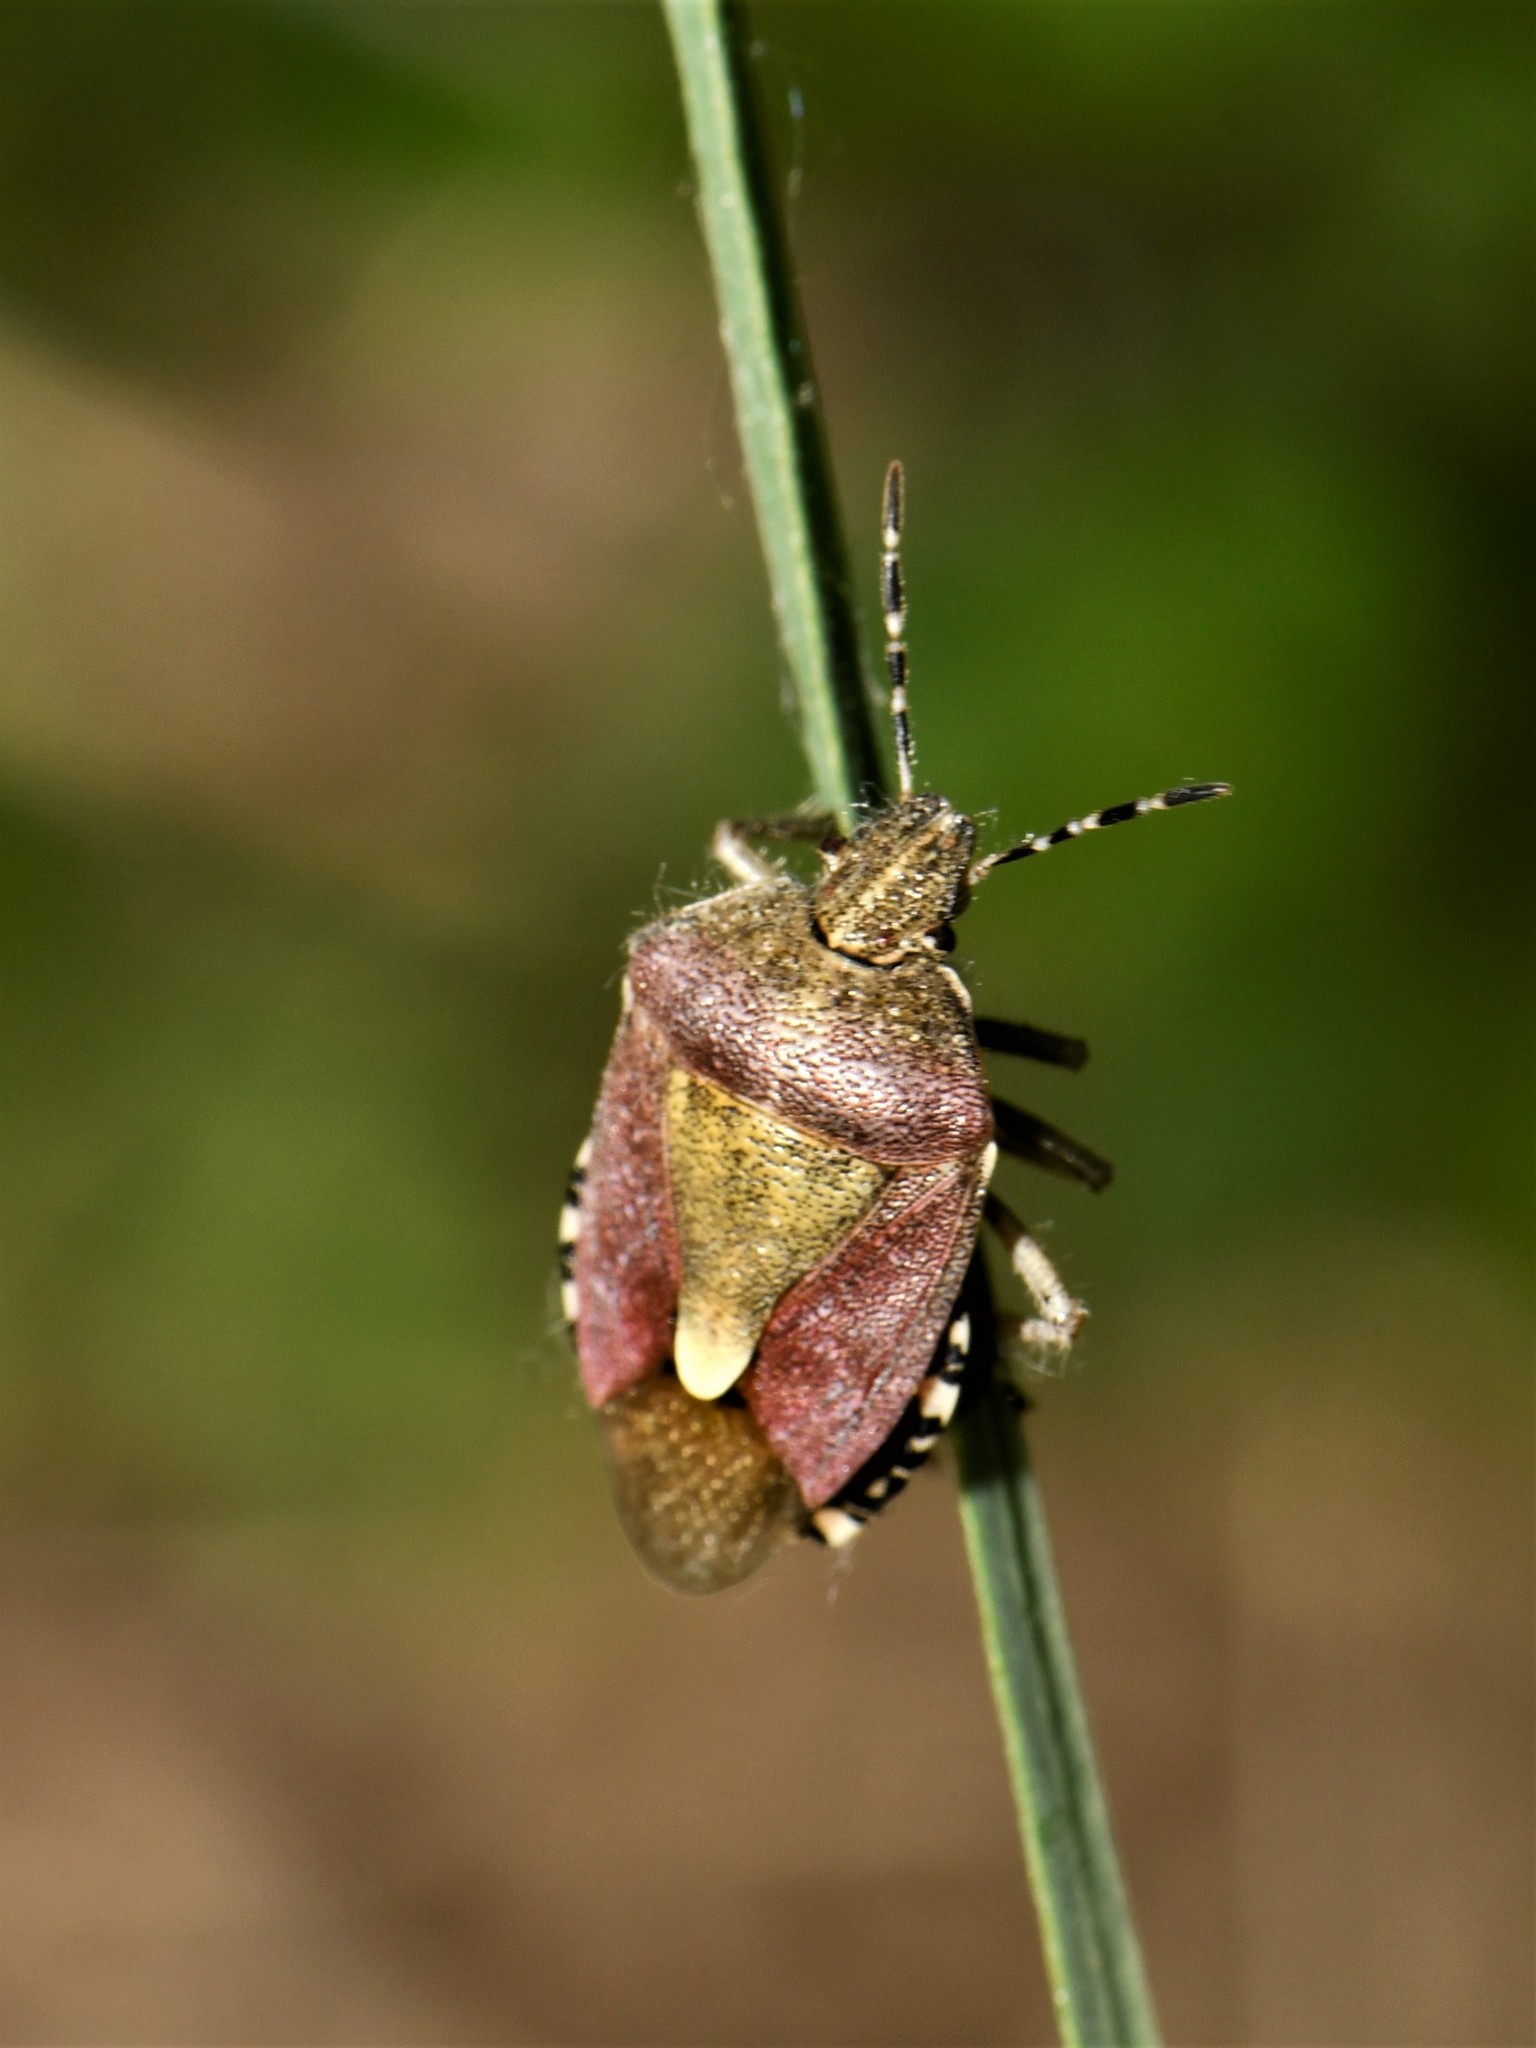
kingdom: Animalia
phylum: Arthropoda
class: Insecta
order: Hemiptera
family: Pentatomidae
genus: Dolycoris
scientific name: Dolycoris baccarum
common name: Sloe bug
